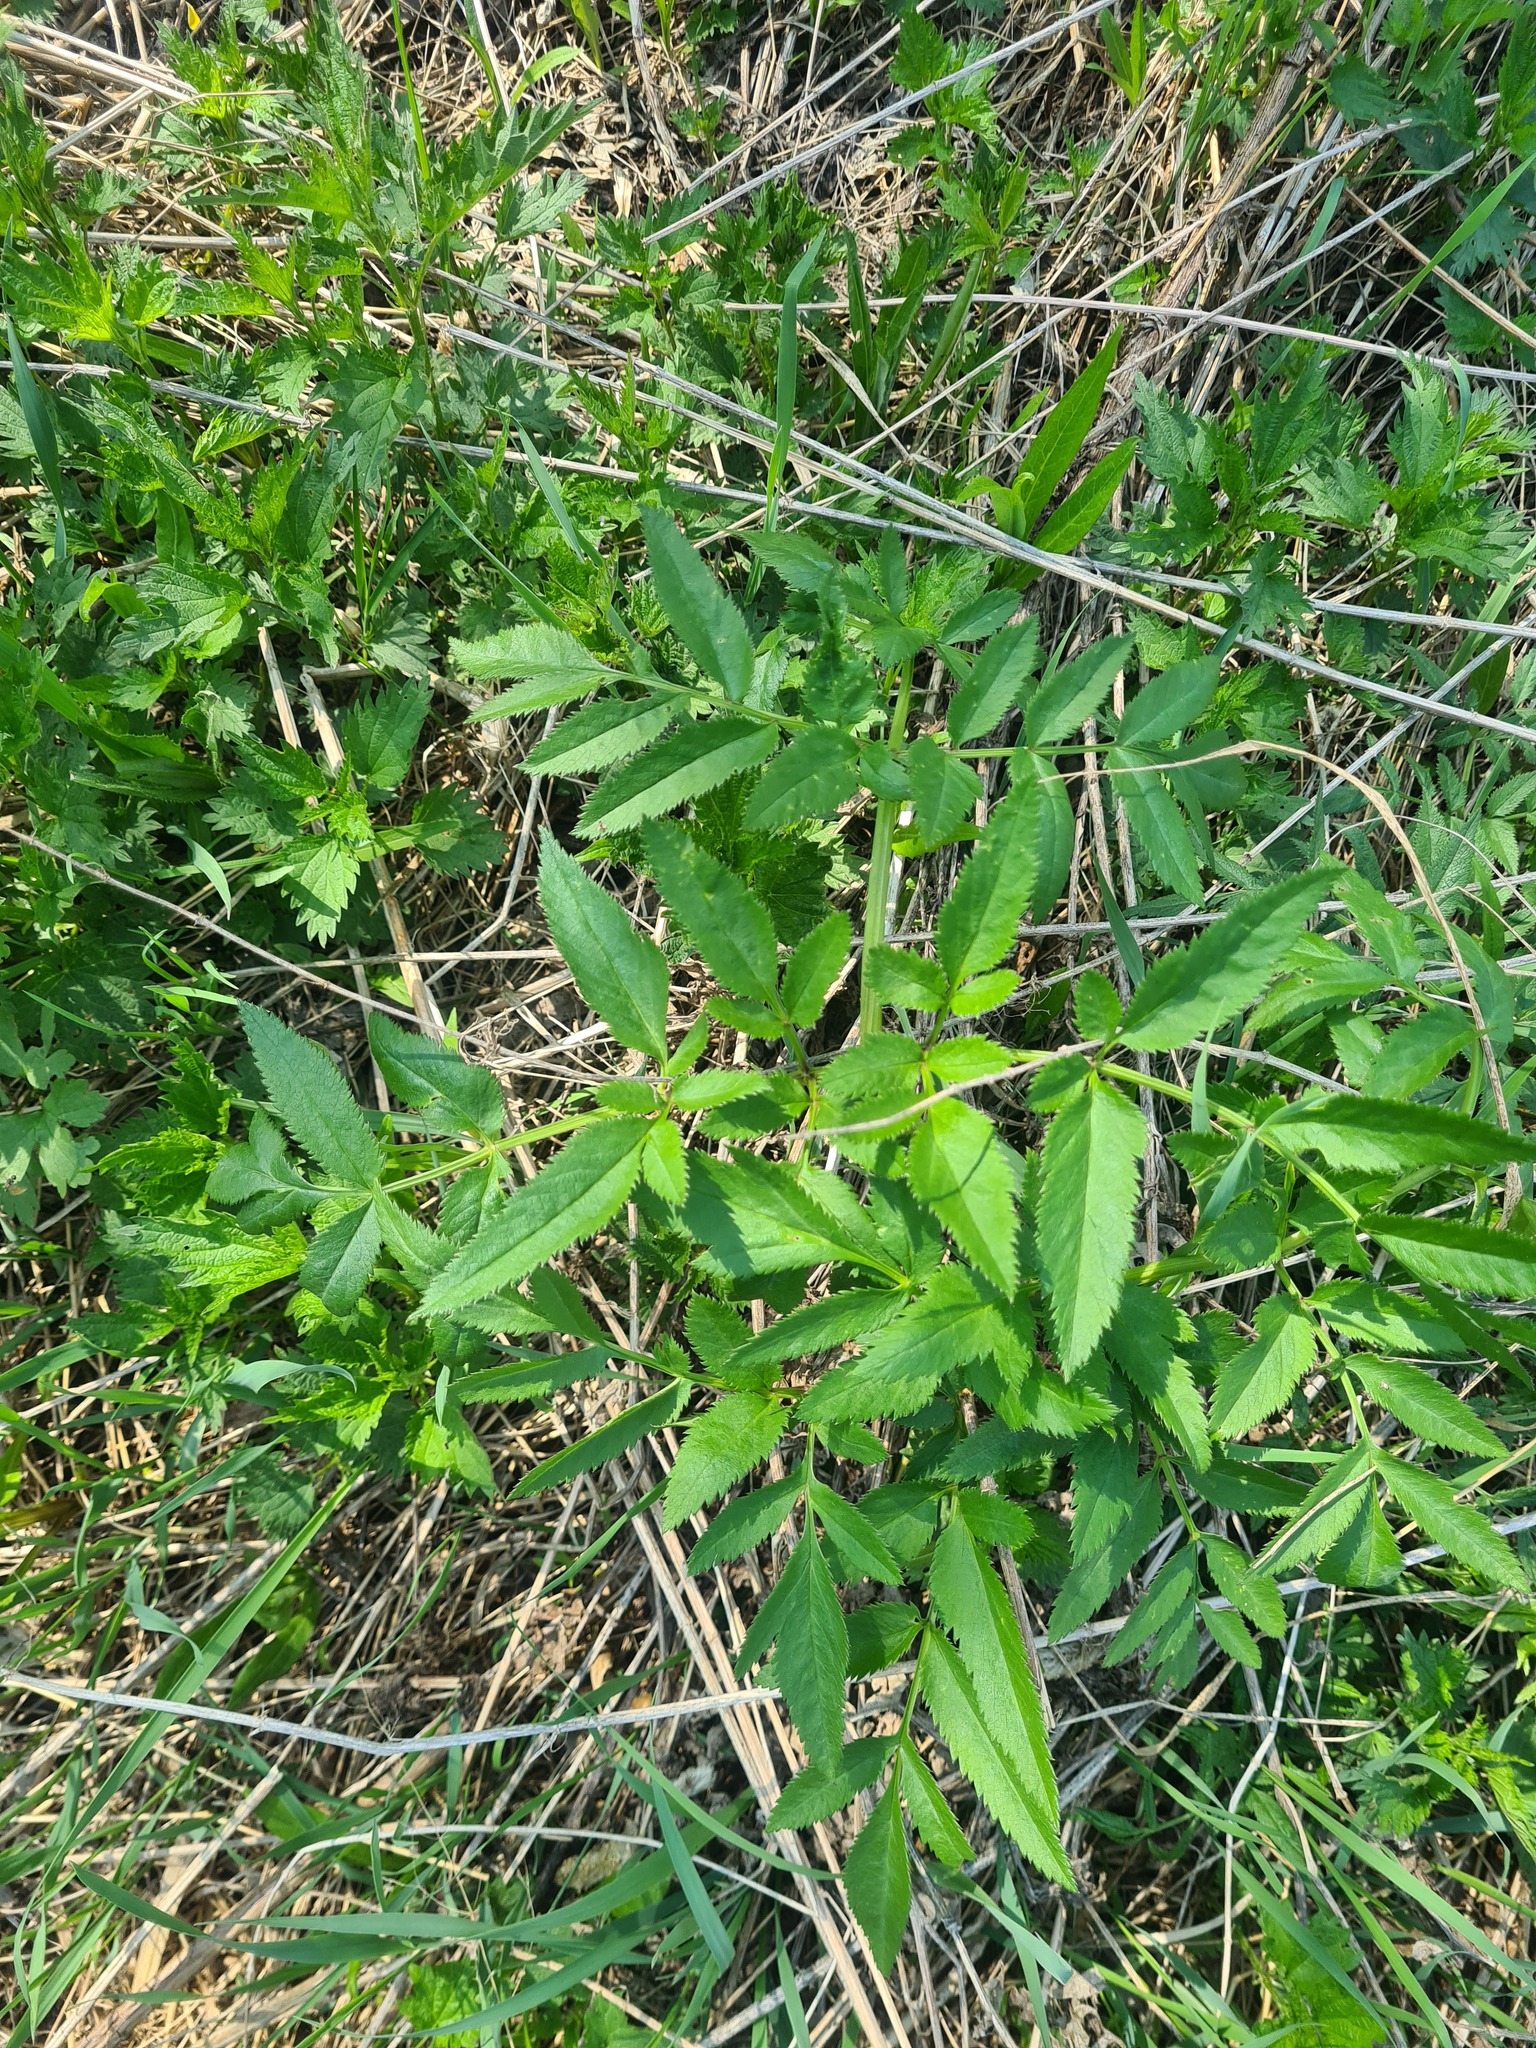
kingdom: Plantae
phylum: Tracheophyta
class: Magnoliopsida
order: Apiales
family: Apiaceae
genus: Angelica
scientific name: Angelica sylvestris
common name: Wild angelica
